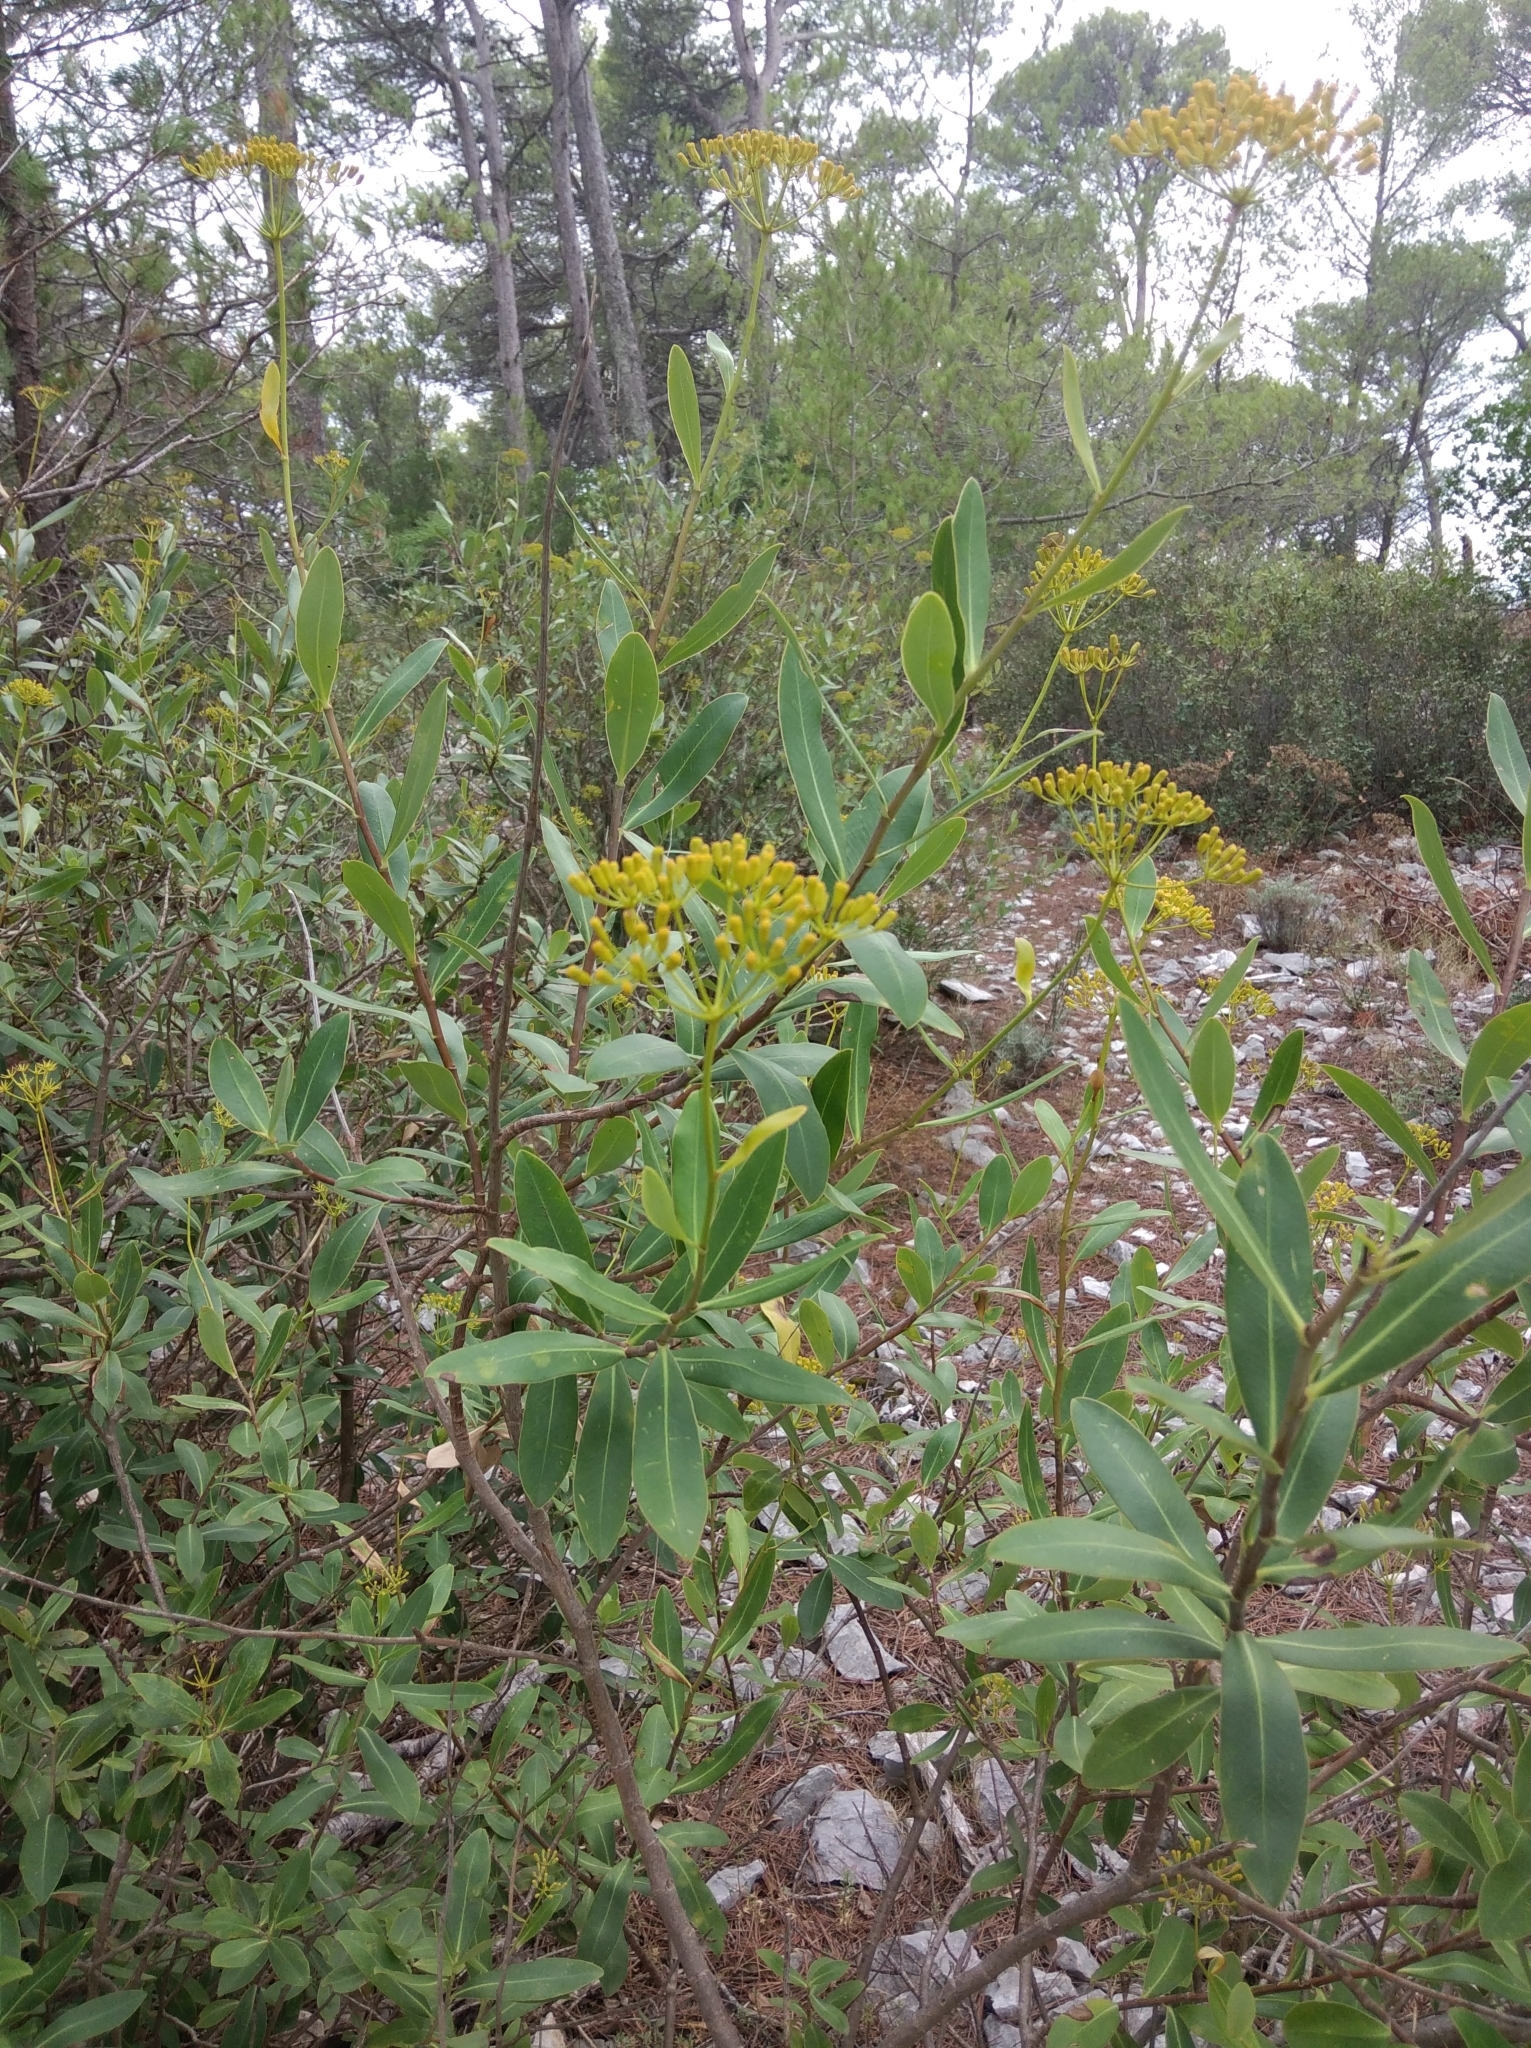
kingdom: Plantae
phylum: Tracheophyta
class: Magnoliopsida
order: Apiales
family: Apiaceae
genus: Bupleurum
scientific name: Bupleurum fruticosum
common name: Shrubby hare's-ear
